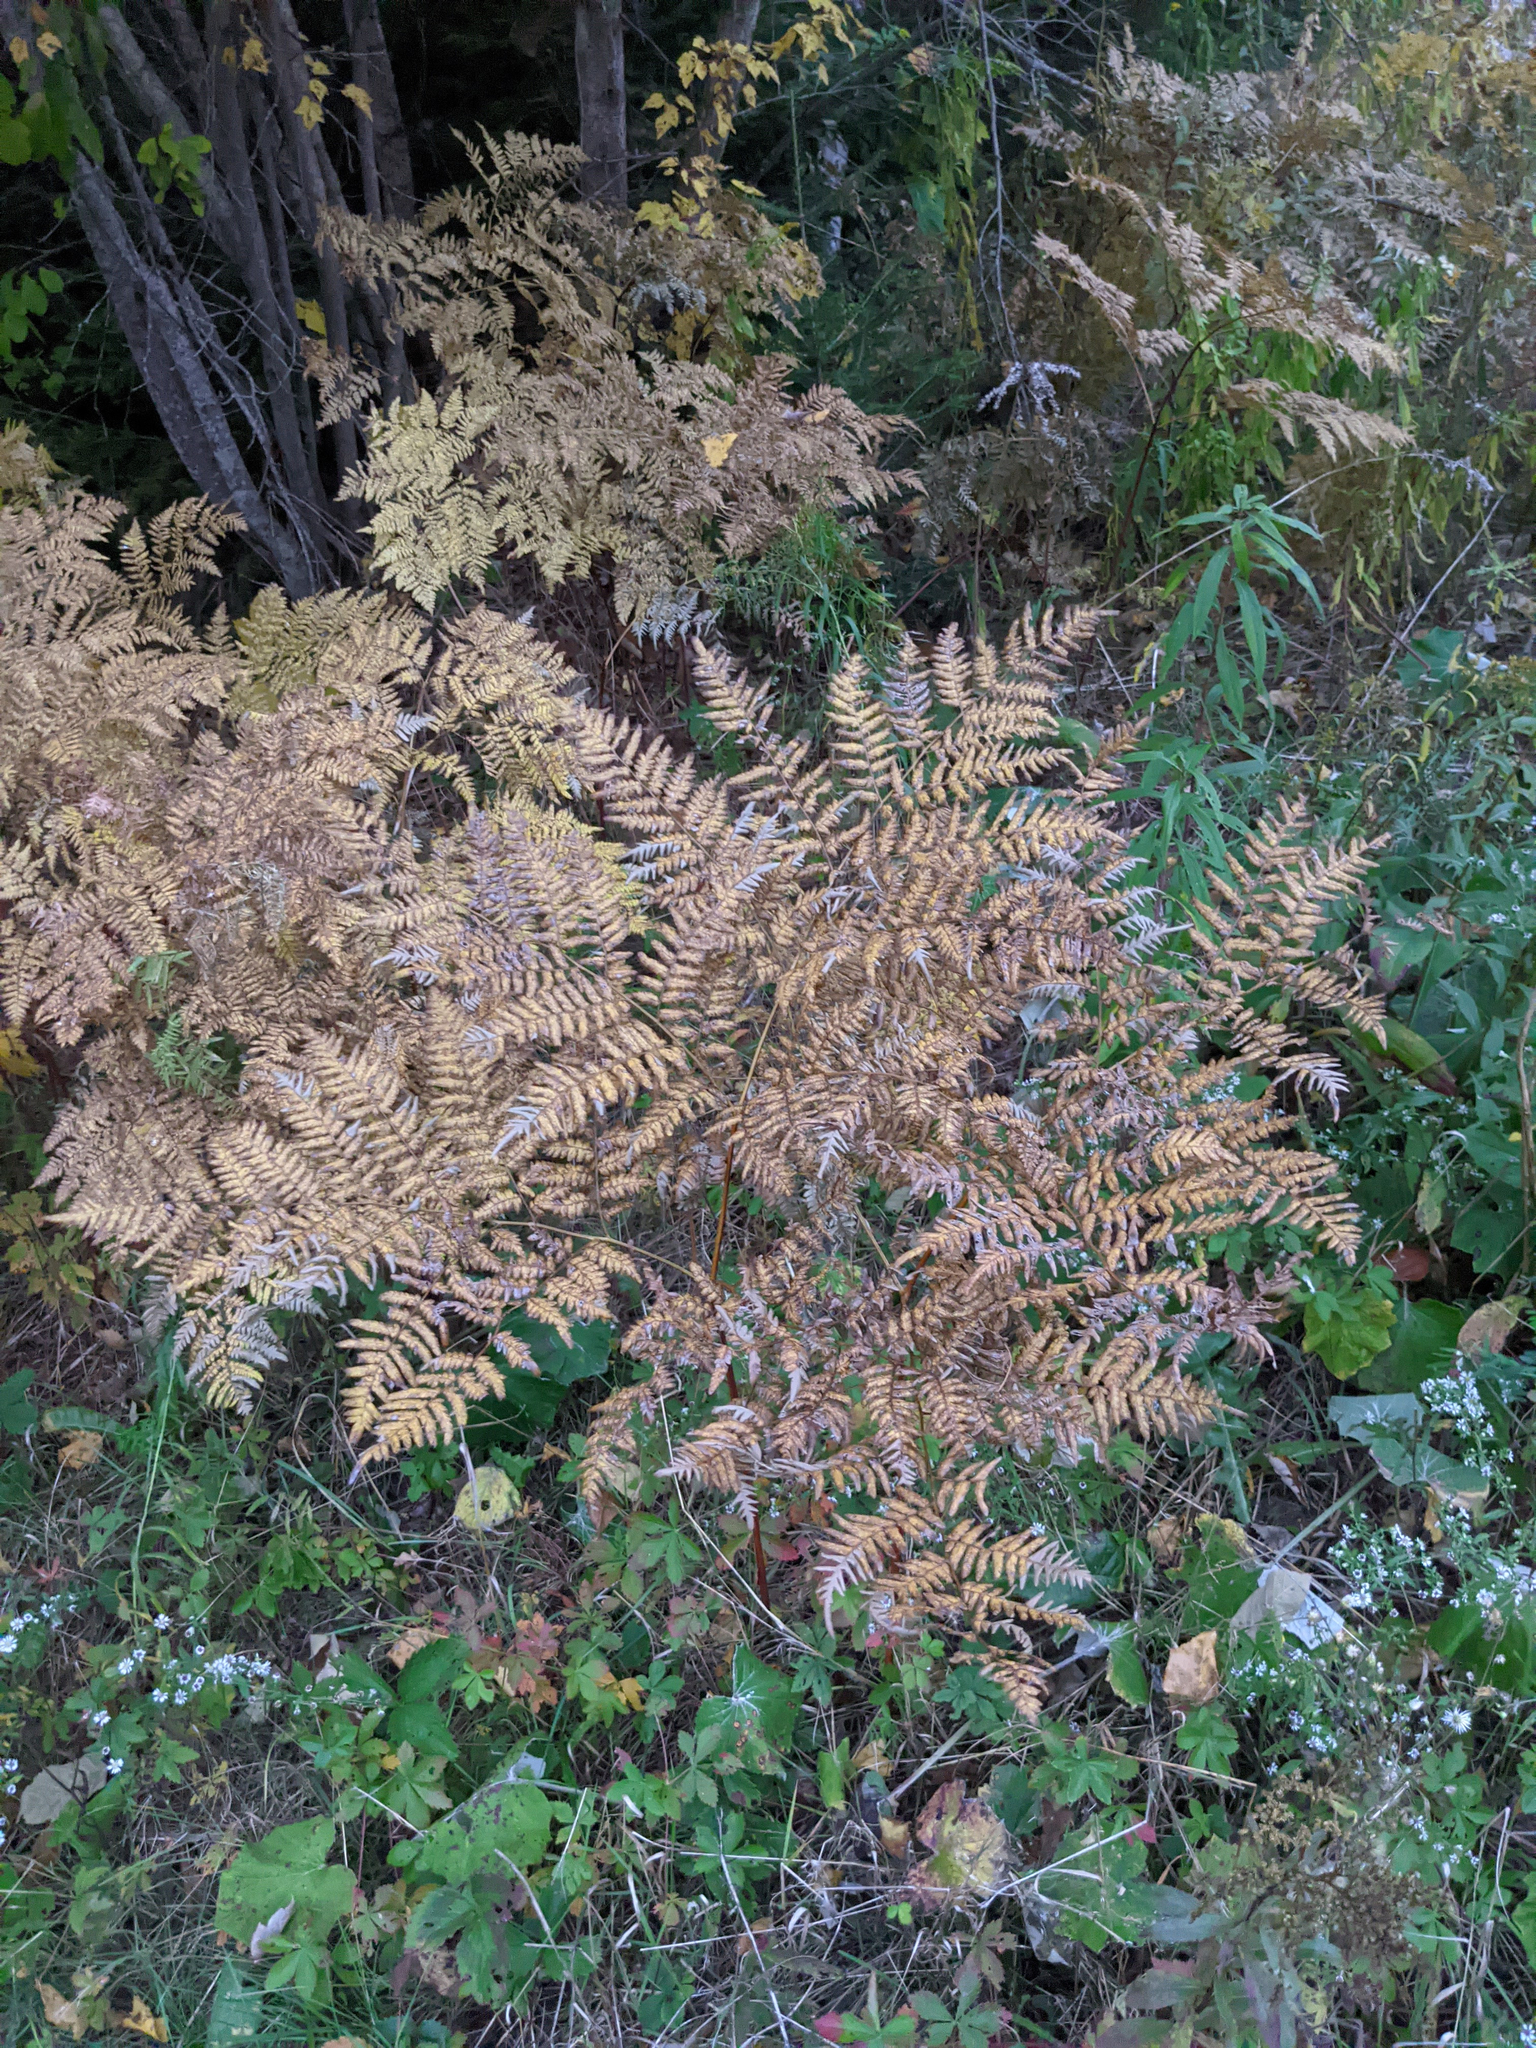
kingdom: Plantae
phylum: Tracheophyta
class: Polypodiopsida
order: Polypodiales
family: Dennstaedtiaceae
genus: Pteridium
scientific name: Pteridium aquilinum
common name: Bracken
